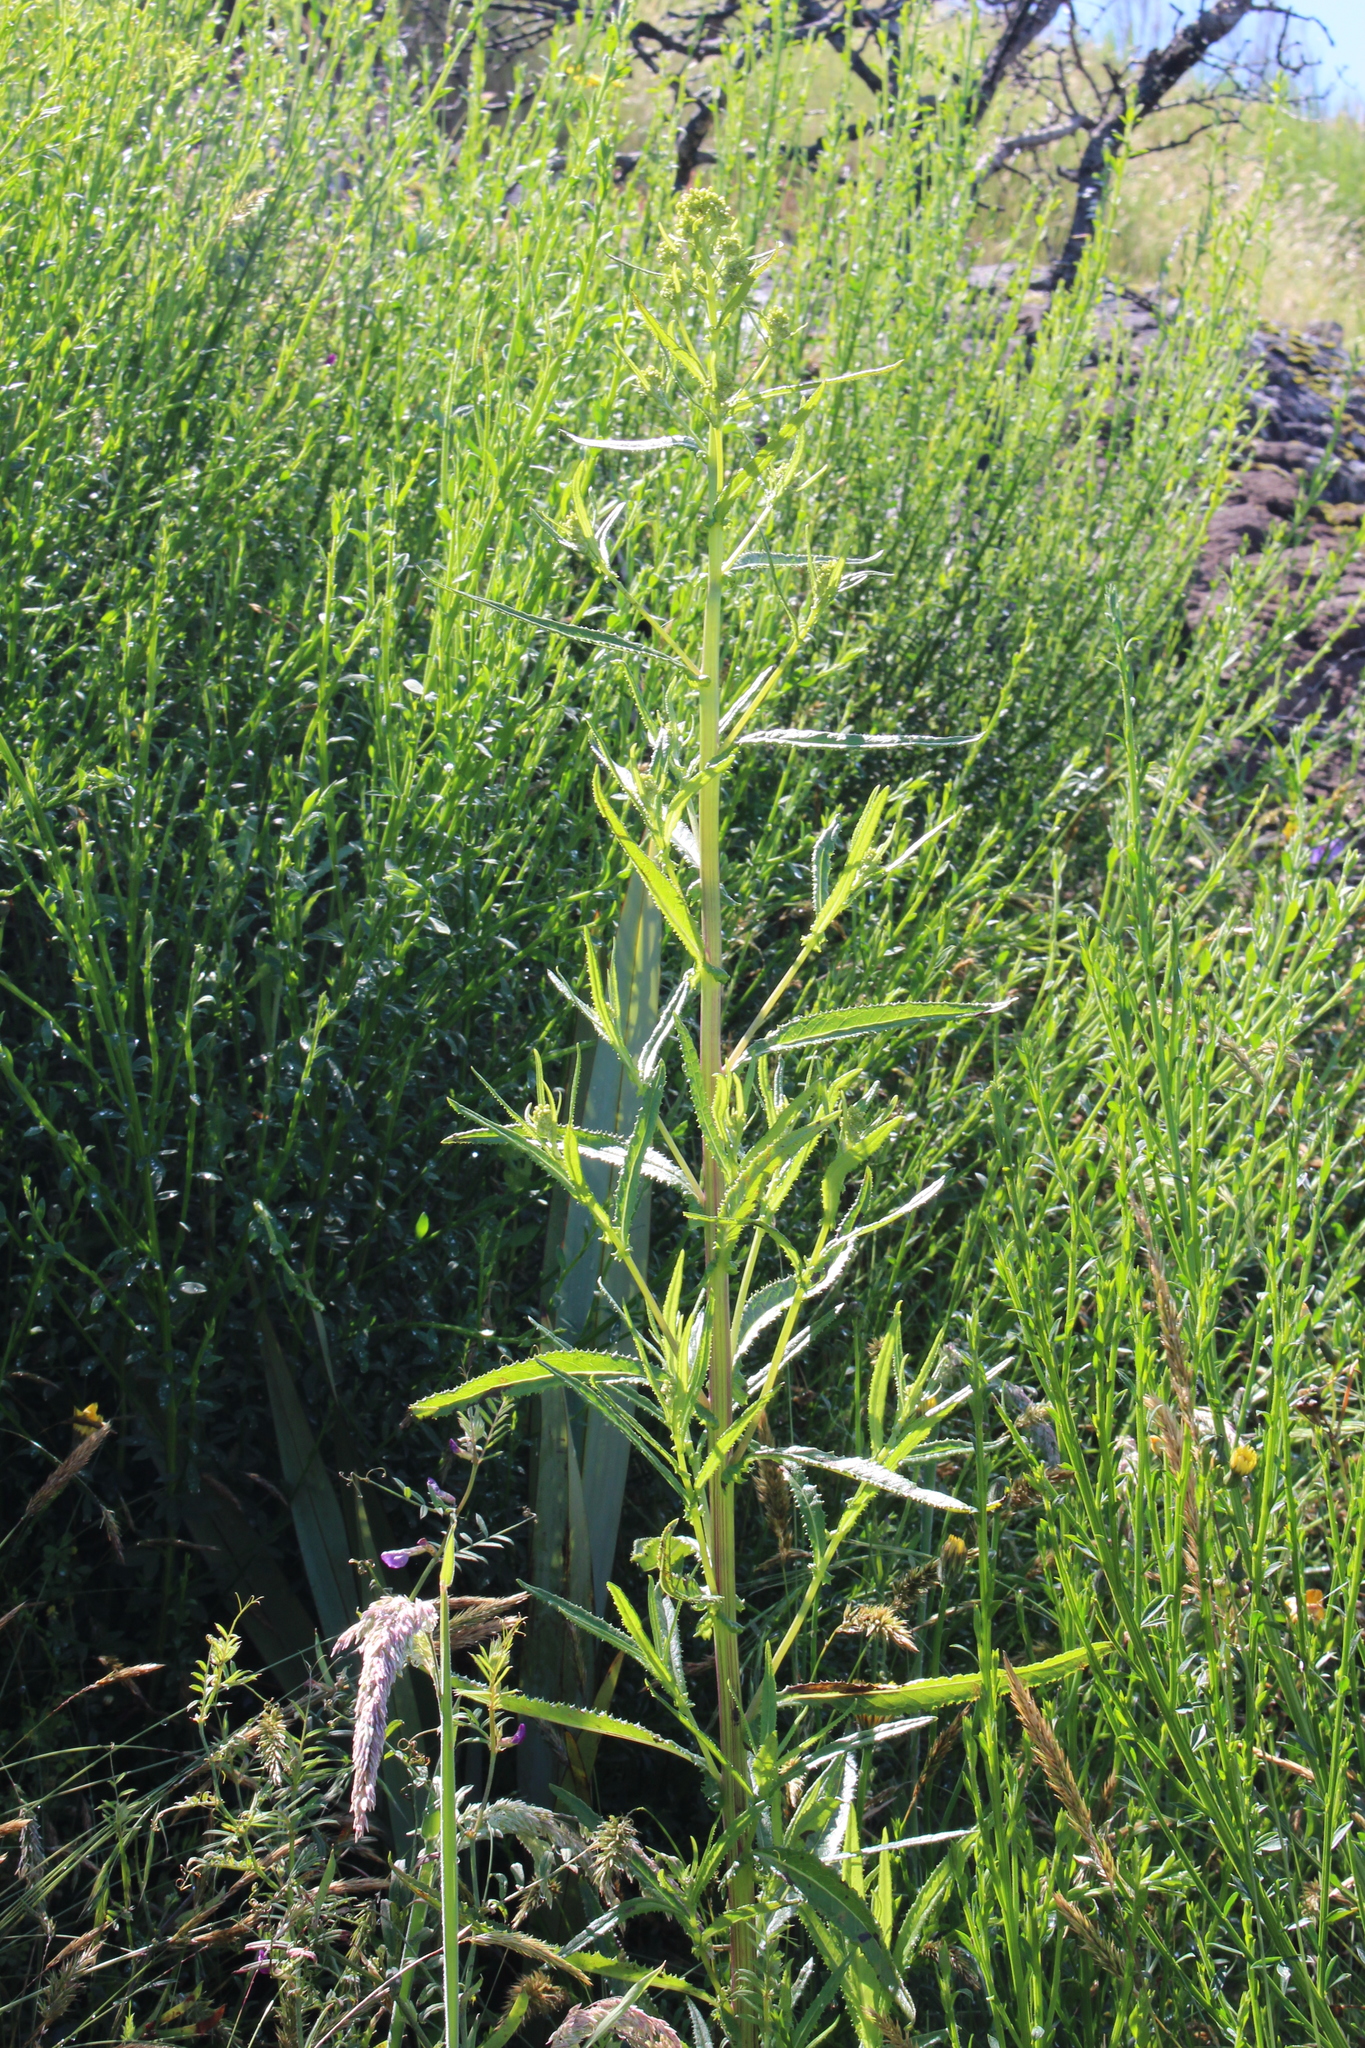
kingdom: Plantae
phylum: Tracheophyta
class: Magnoliopsida
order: Asterales
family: Asteraceae
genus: Senecio
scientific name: Senecio minimus
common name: Toothed fireweed
